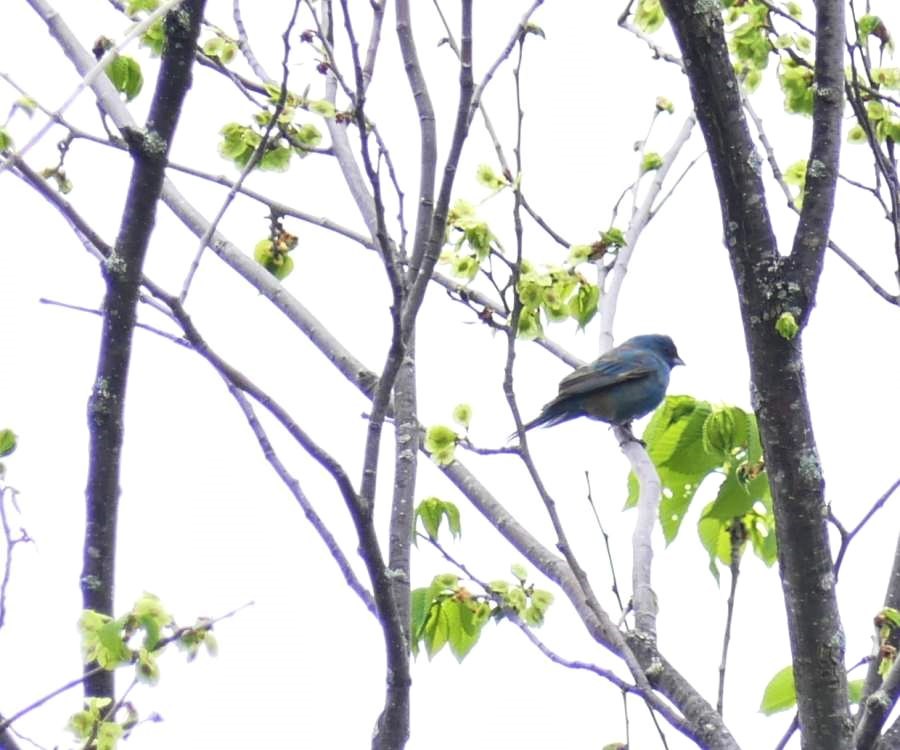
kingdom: Animalia
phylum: Chordata
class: Aves
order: Passeriformes
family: Cardinalidae
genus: Passerina
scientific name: Passerina cyanea
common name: Indigo bunting
